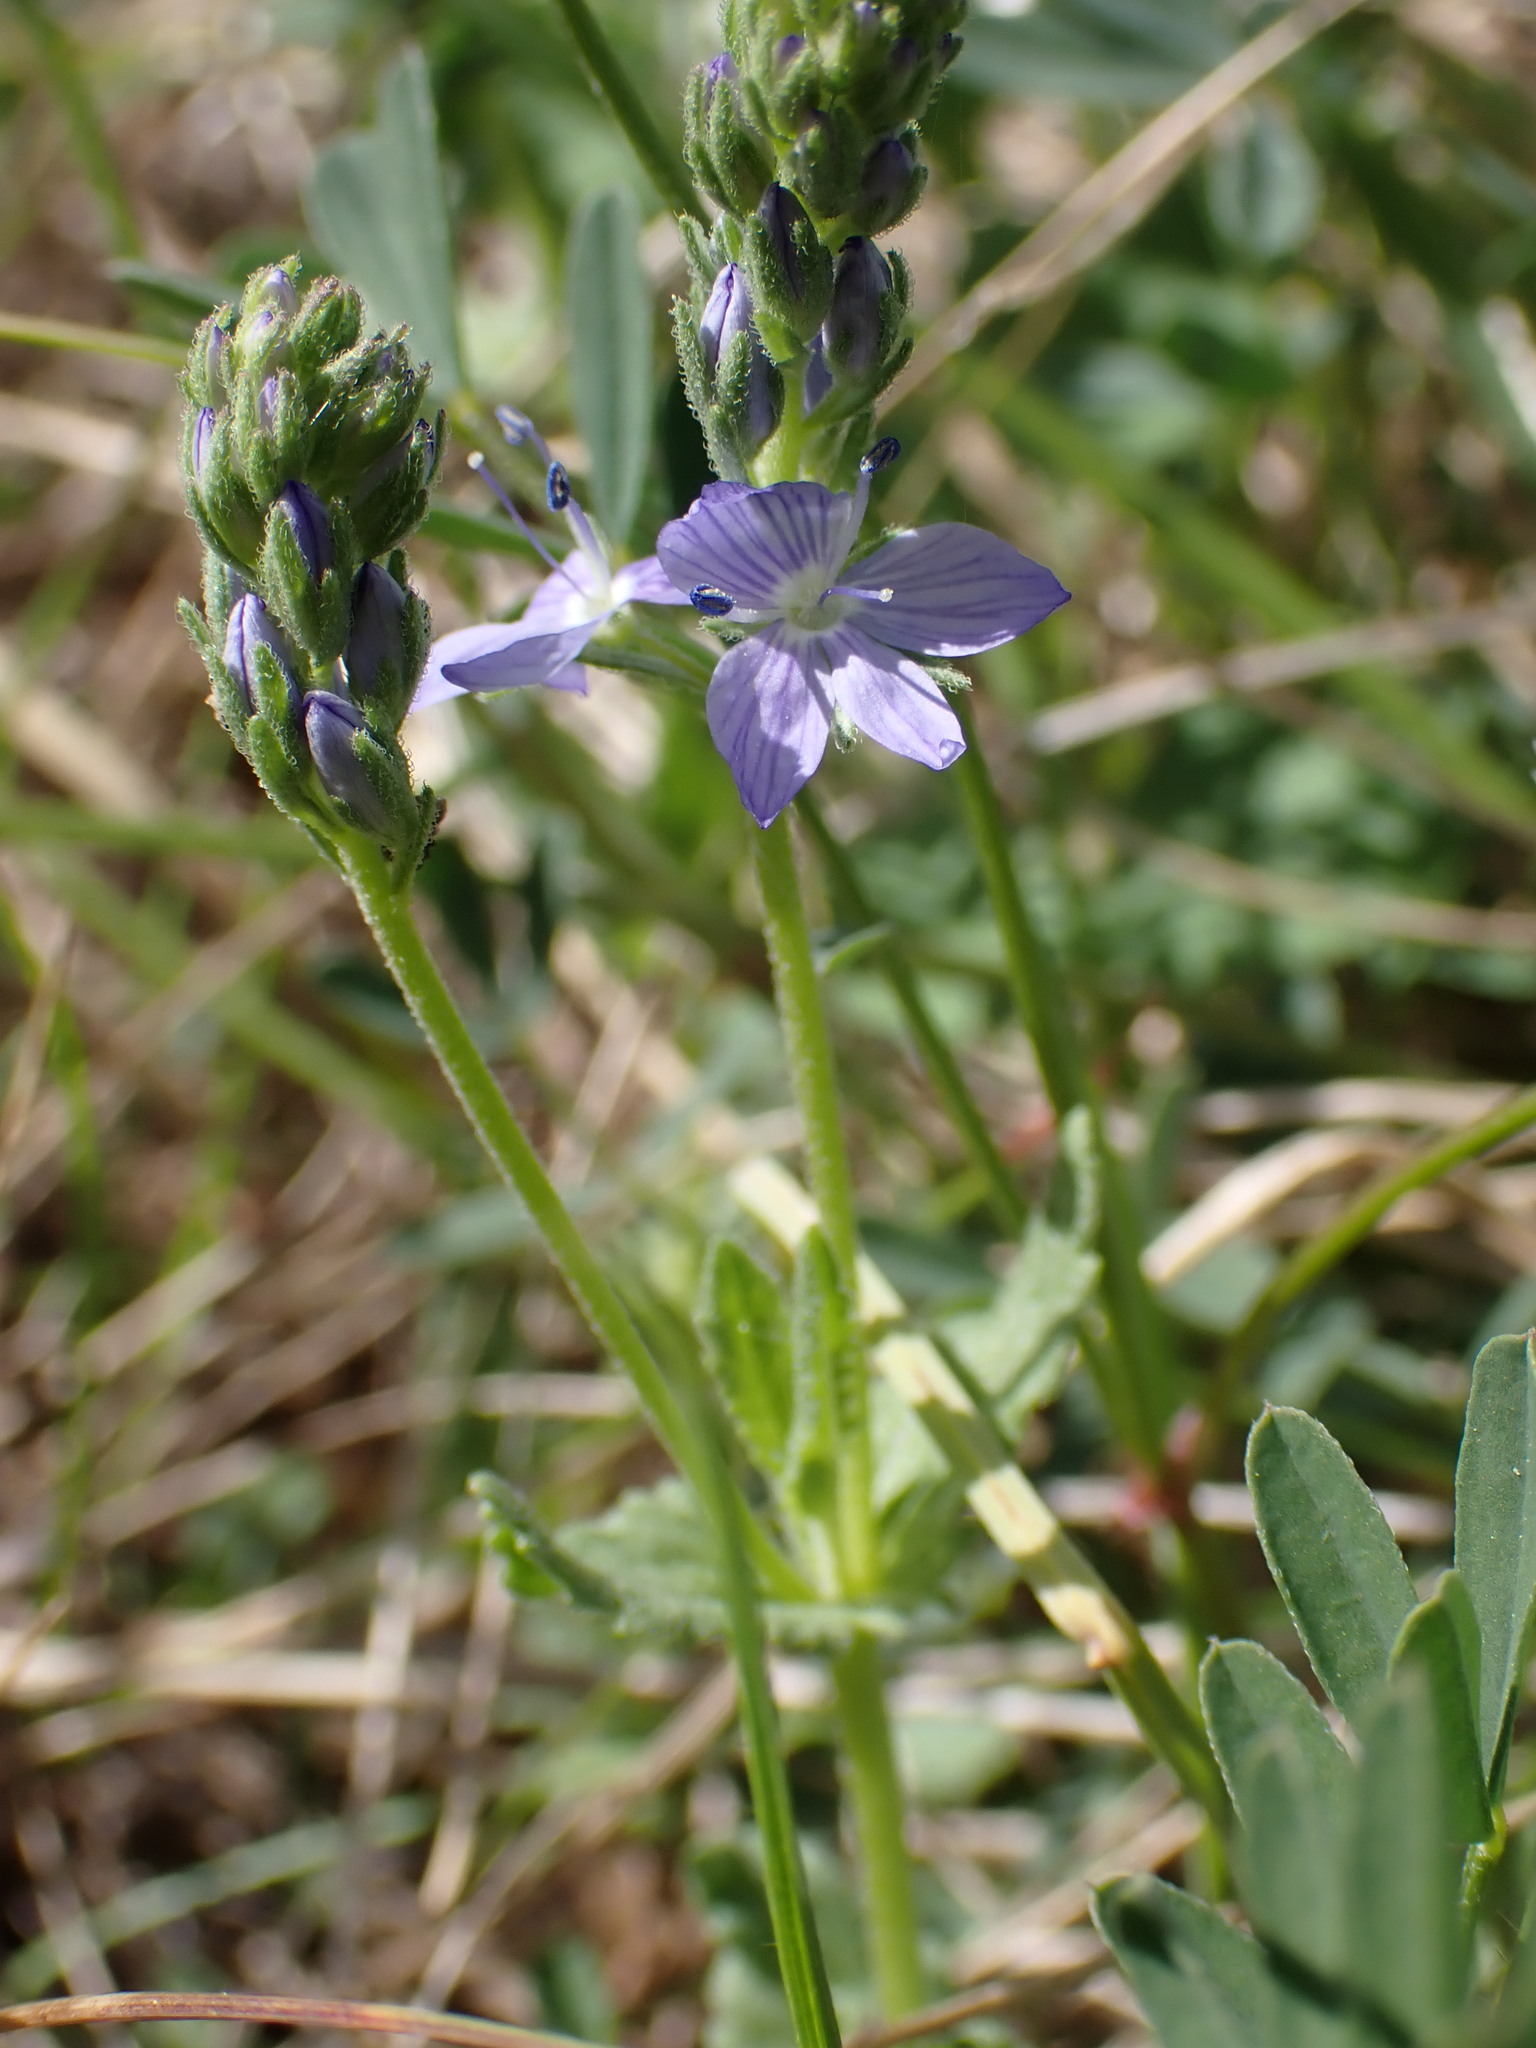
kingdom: Plantae
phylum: Tracheophyta
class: Magnoliopsida
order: Lamiales
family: Plantaginaceae
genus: Veronica
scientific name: Veronica orsiniana
